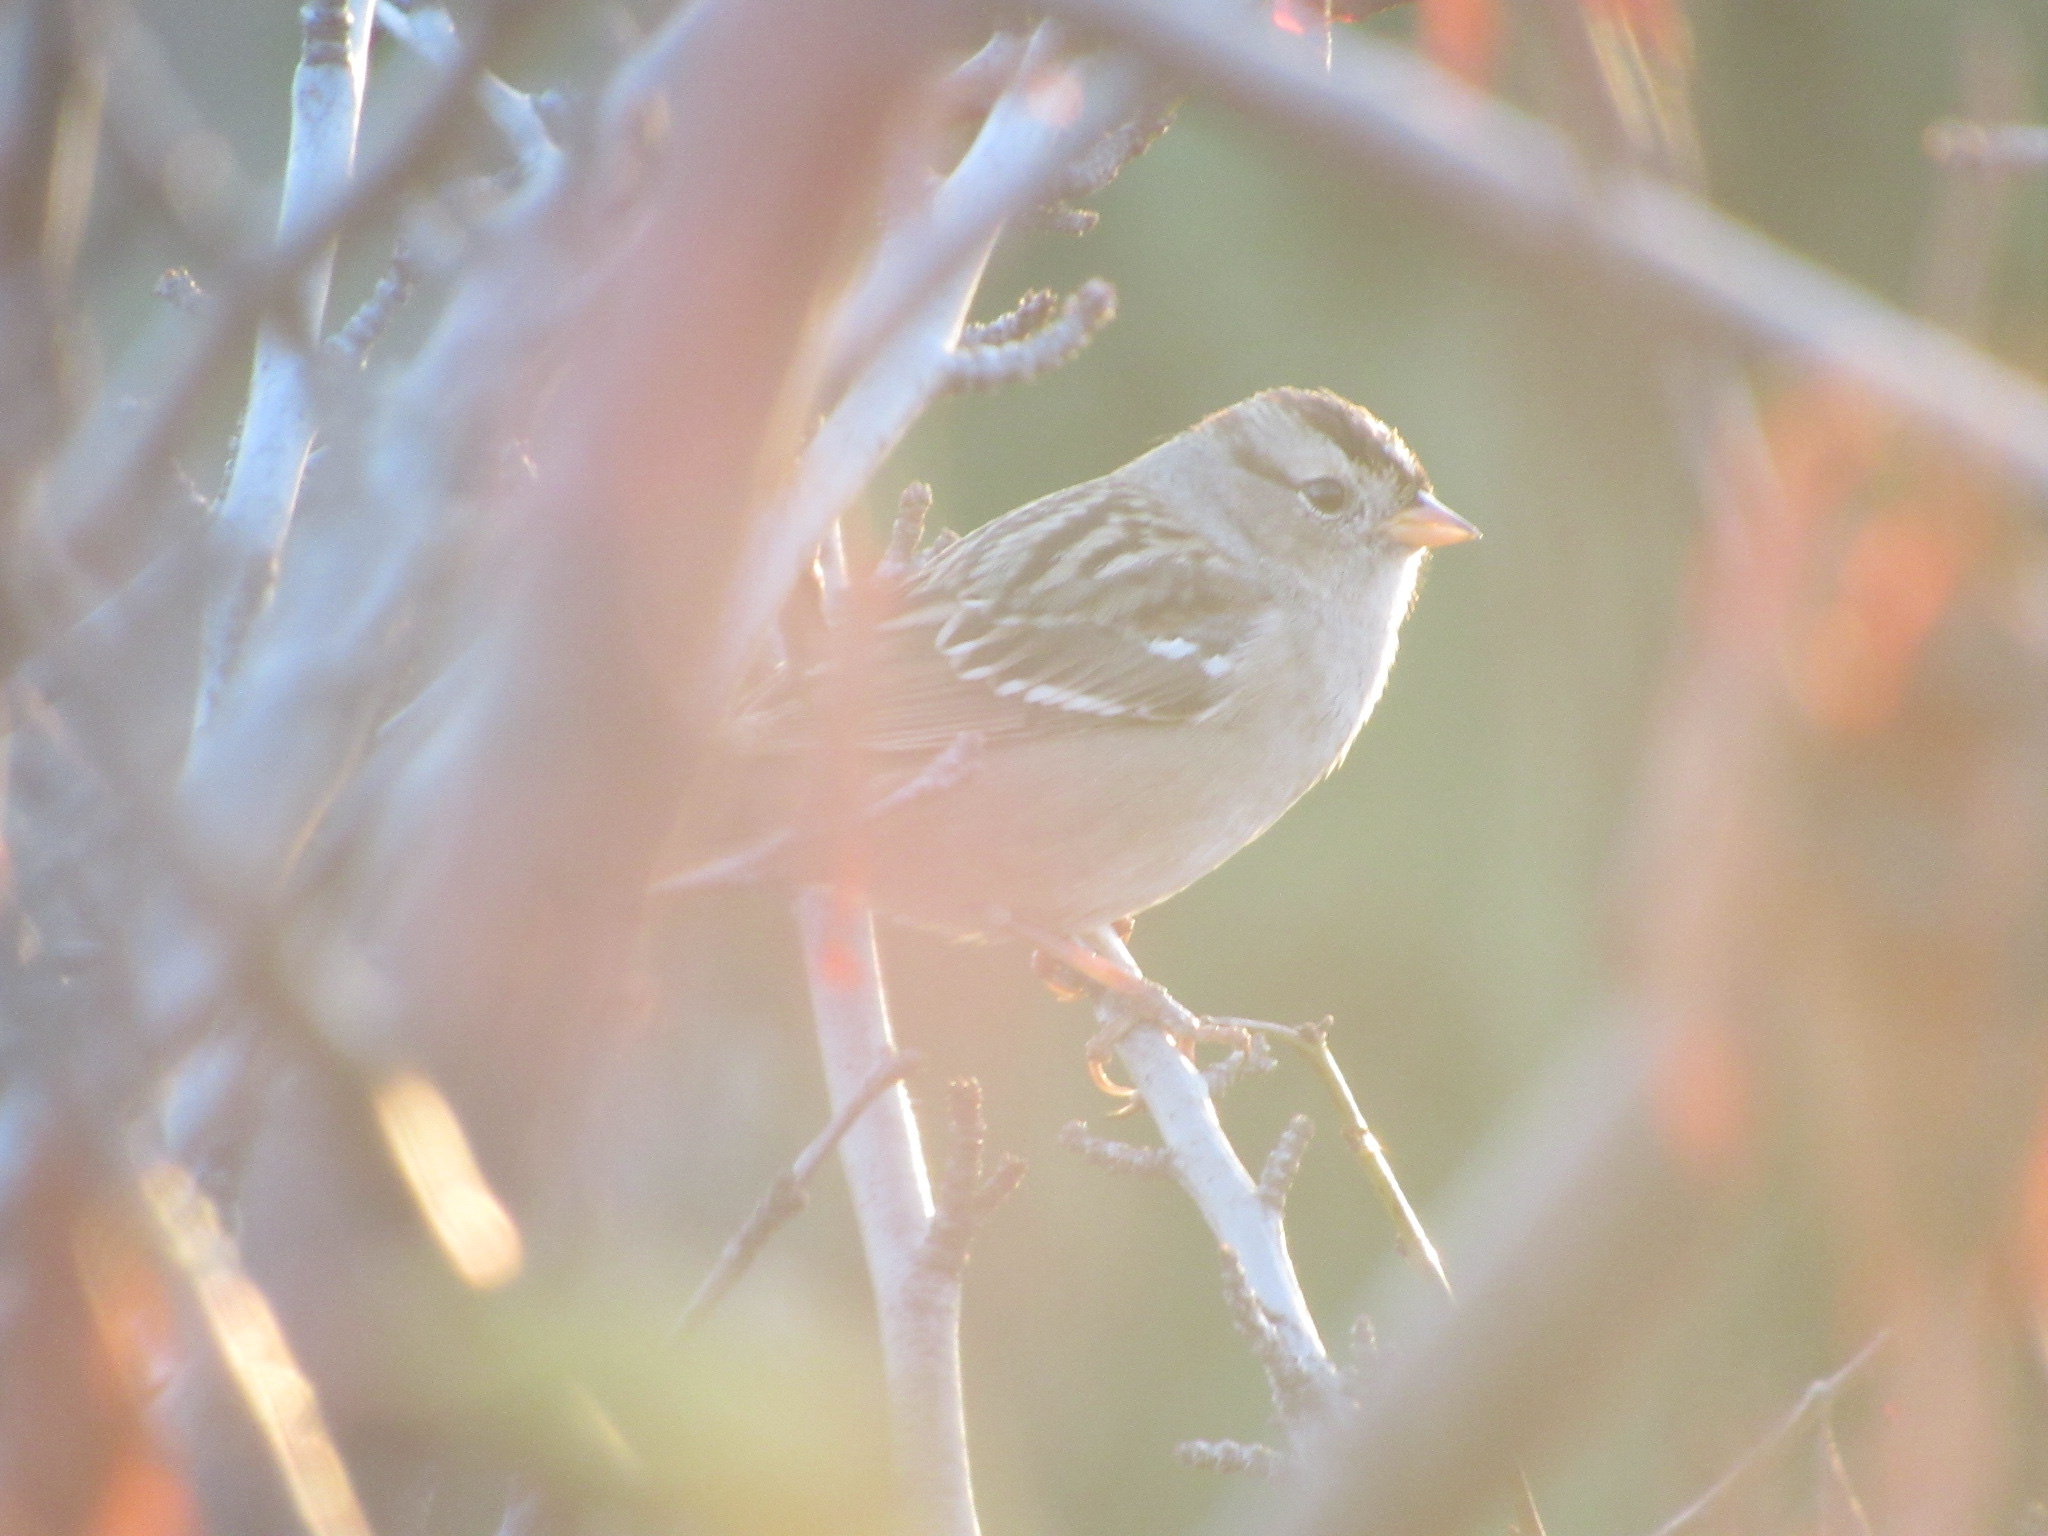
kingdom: Animalia
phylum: Chordata
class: Aves
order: Passeriformes
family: Passerellidae
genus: Zonotrichia
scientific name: Zonotrichia leucophrys
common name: White-crowned sparrow
